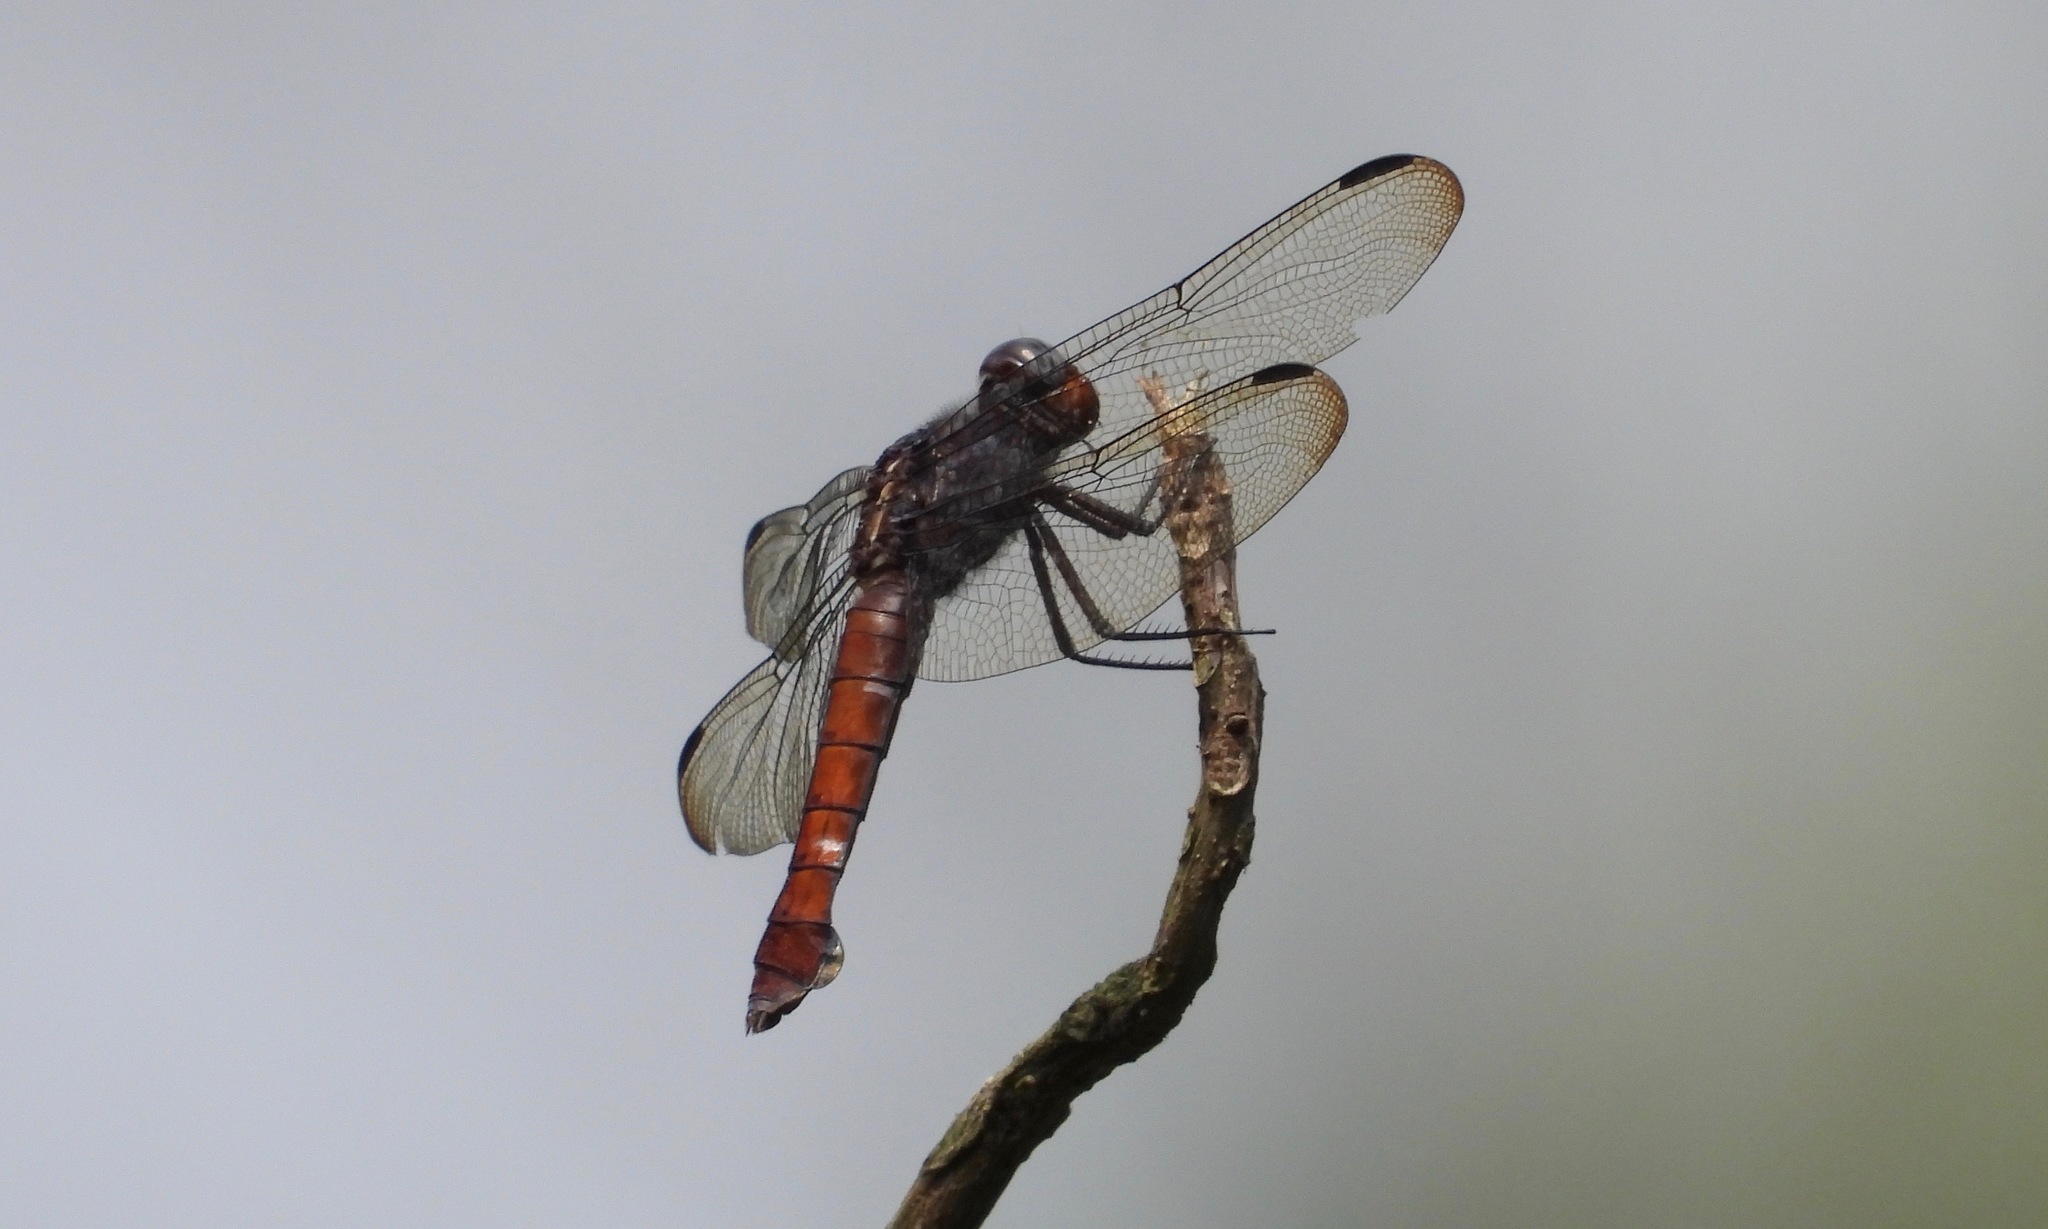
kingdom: Animalia
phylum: Arthropoda
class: Insecta
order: Odonata
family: Libellulidae
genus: Libellula
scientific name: Libellula herculea
